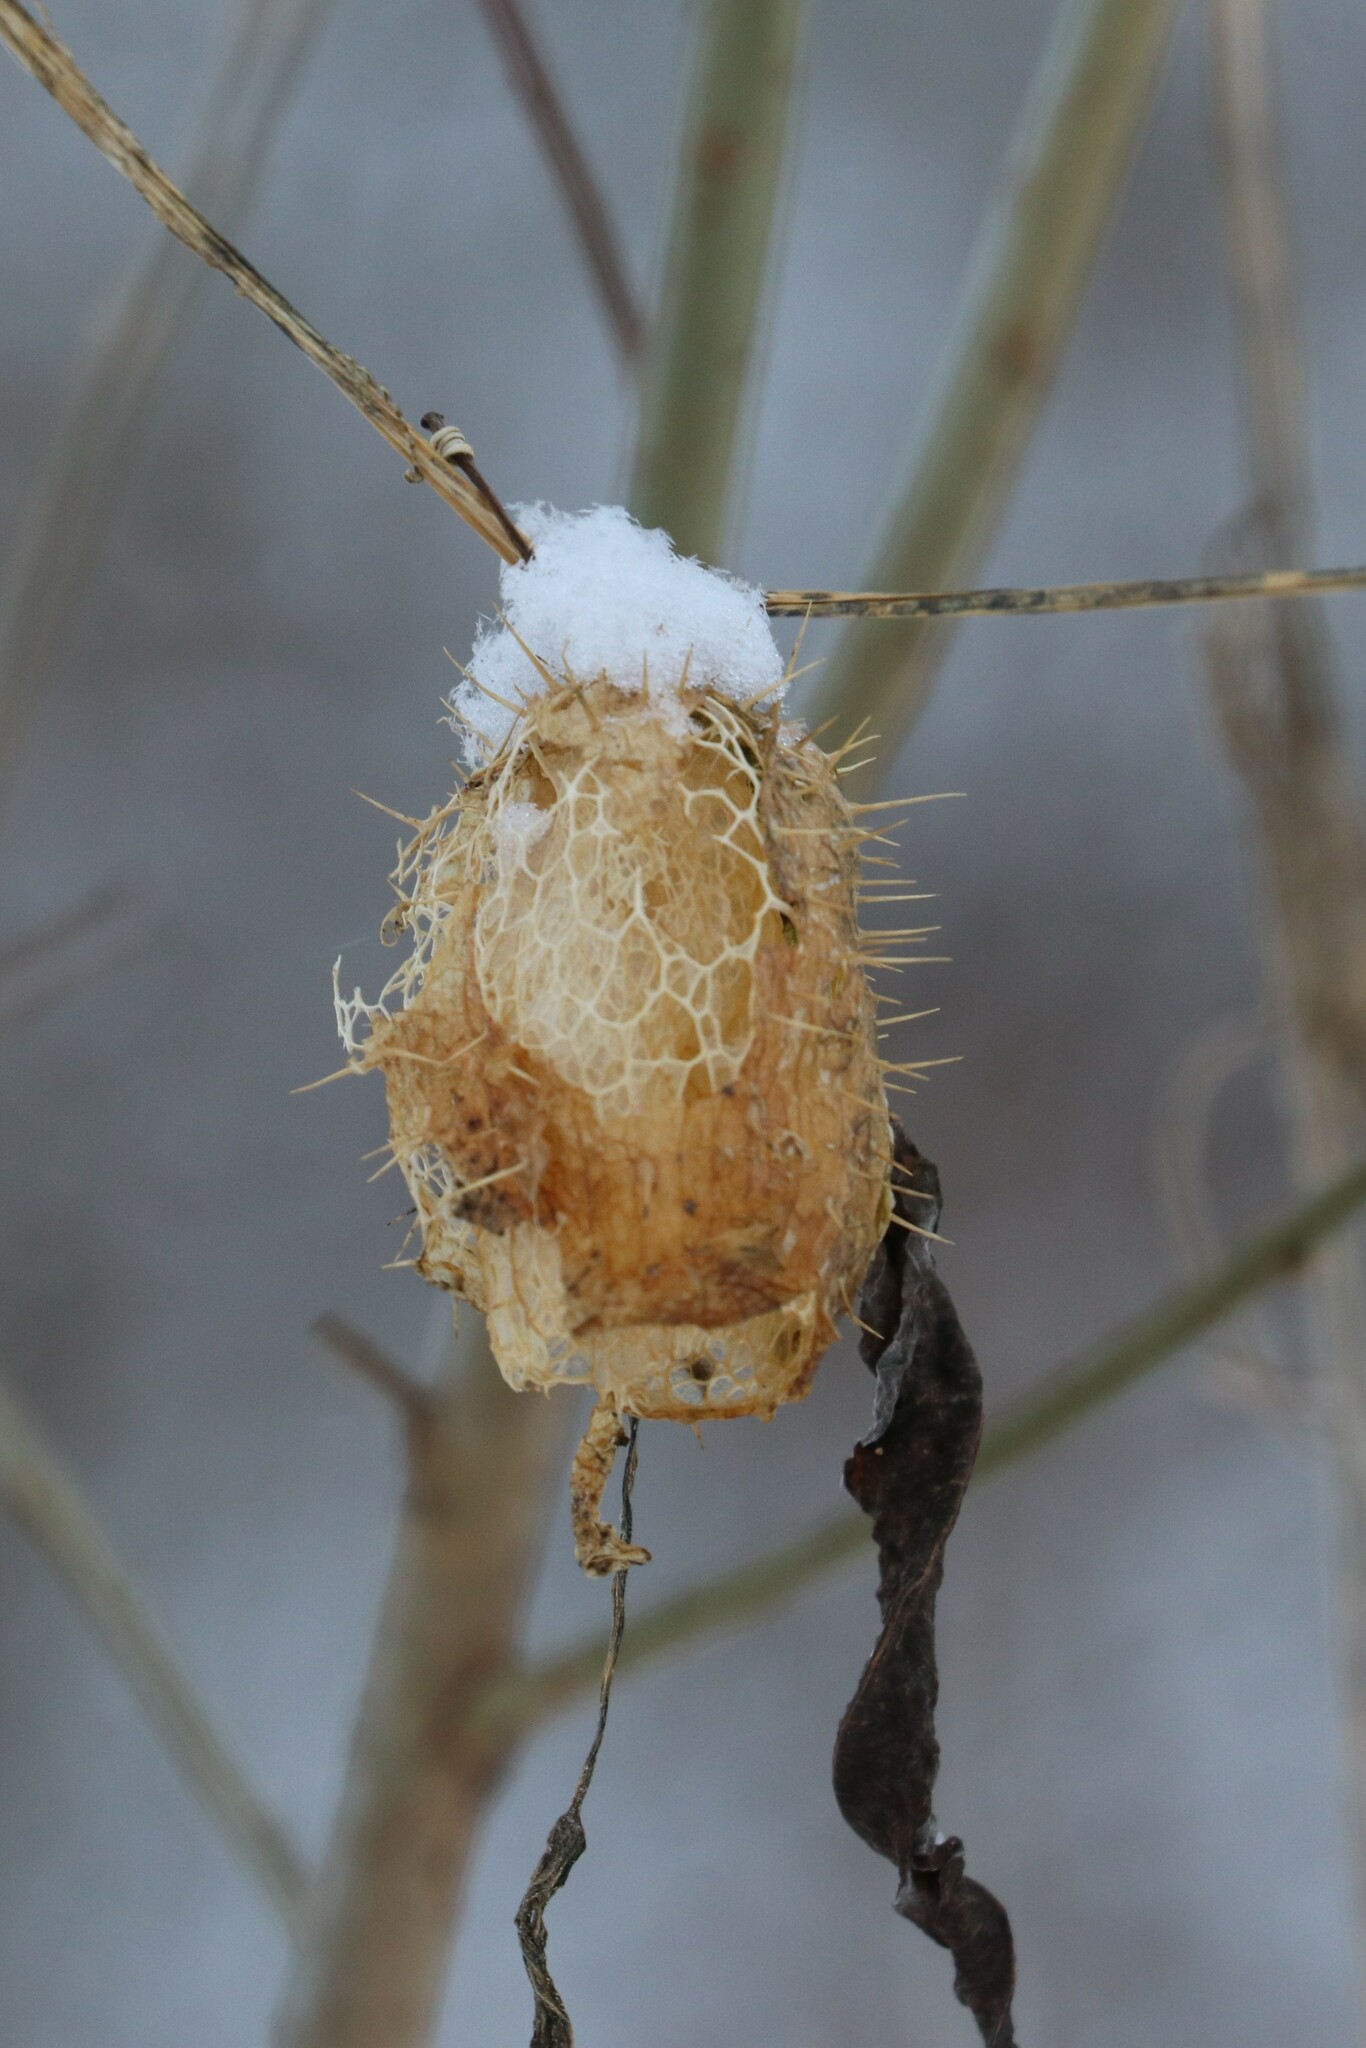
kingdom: Plantae
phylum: Tracheophyta
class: Magnoliopsida
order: Cucurbitales
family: Cucurbitaceae
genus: Echinocystis
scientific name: Echinocystis lobata
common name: Wild cucumber
